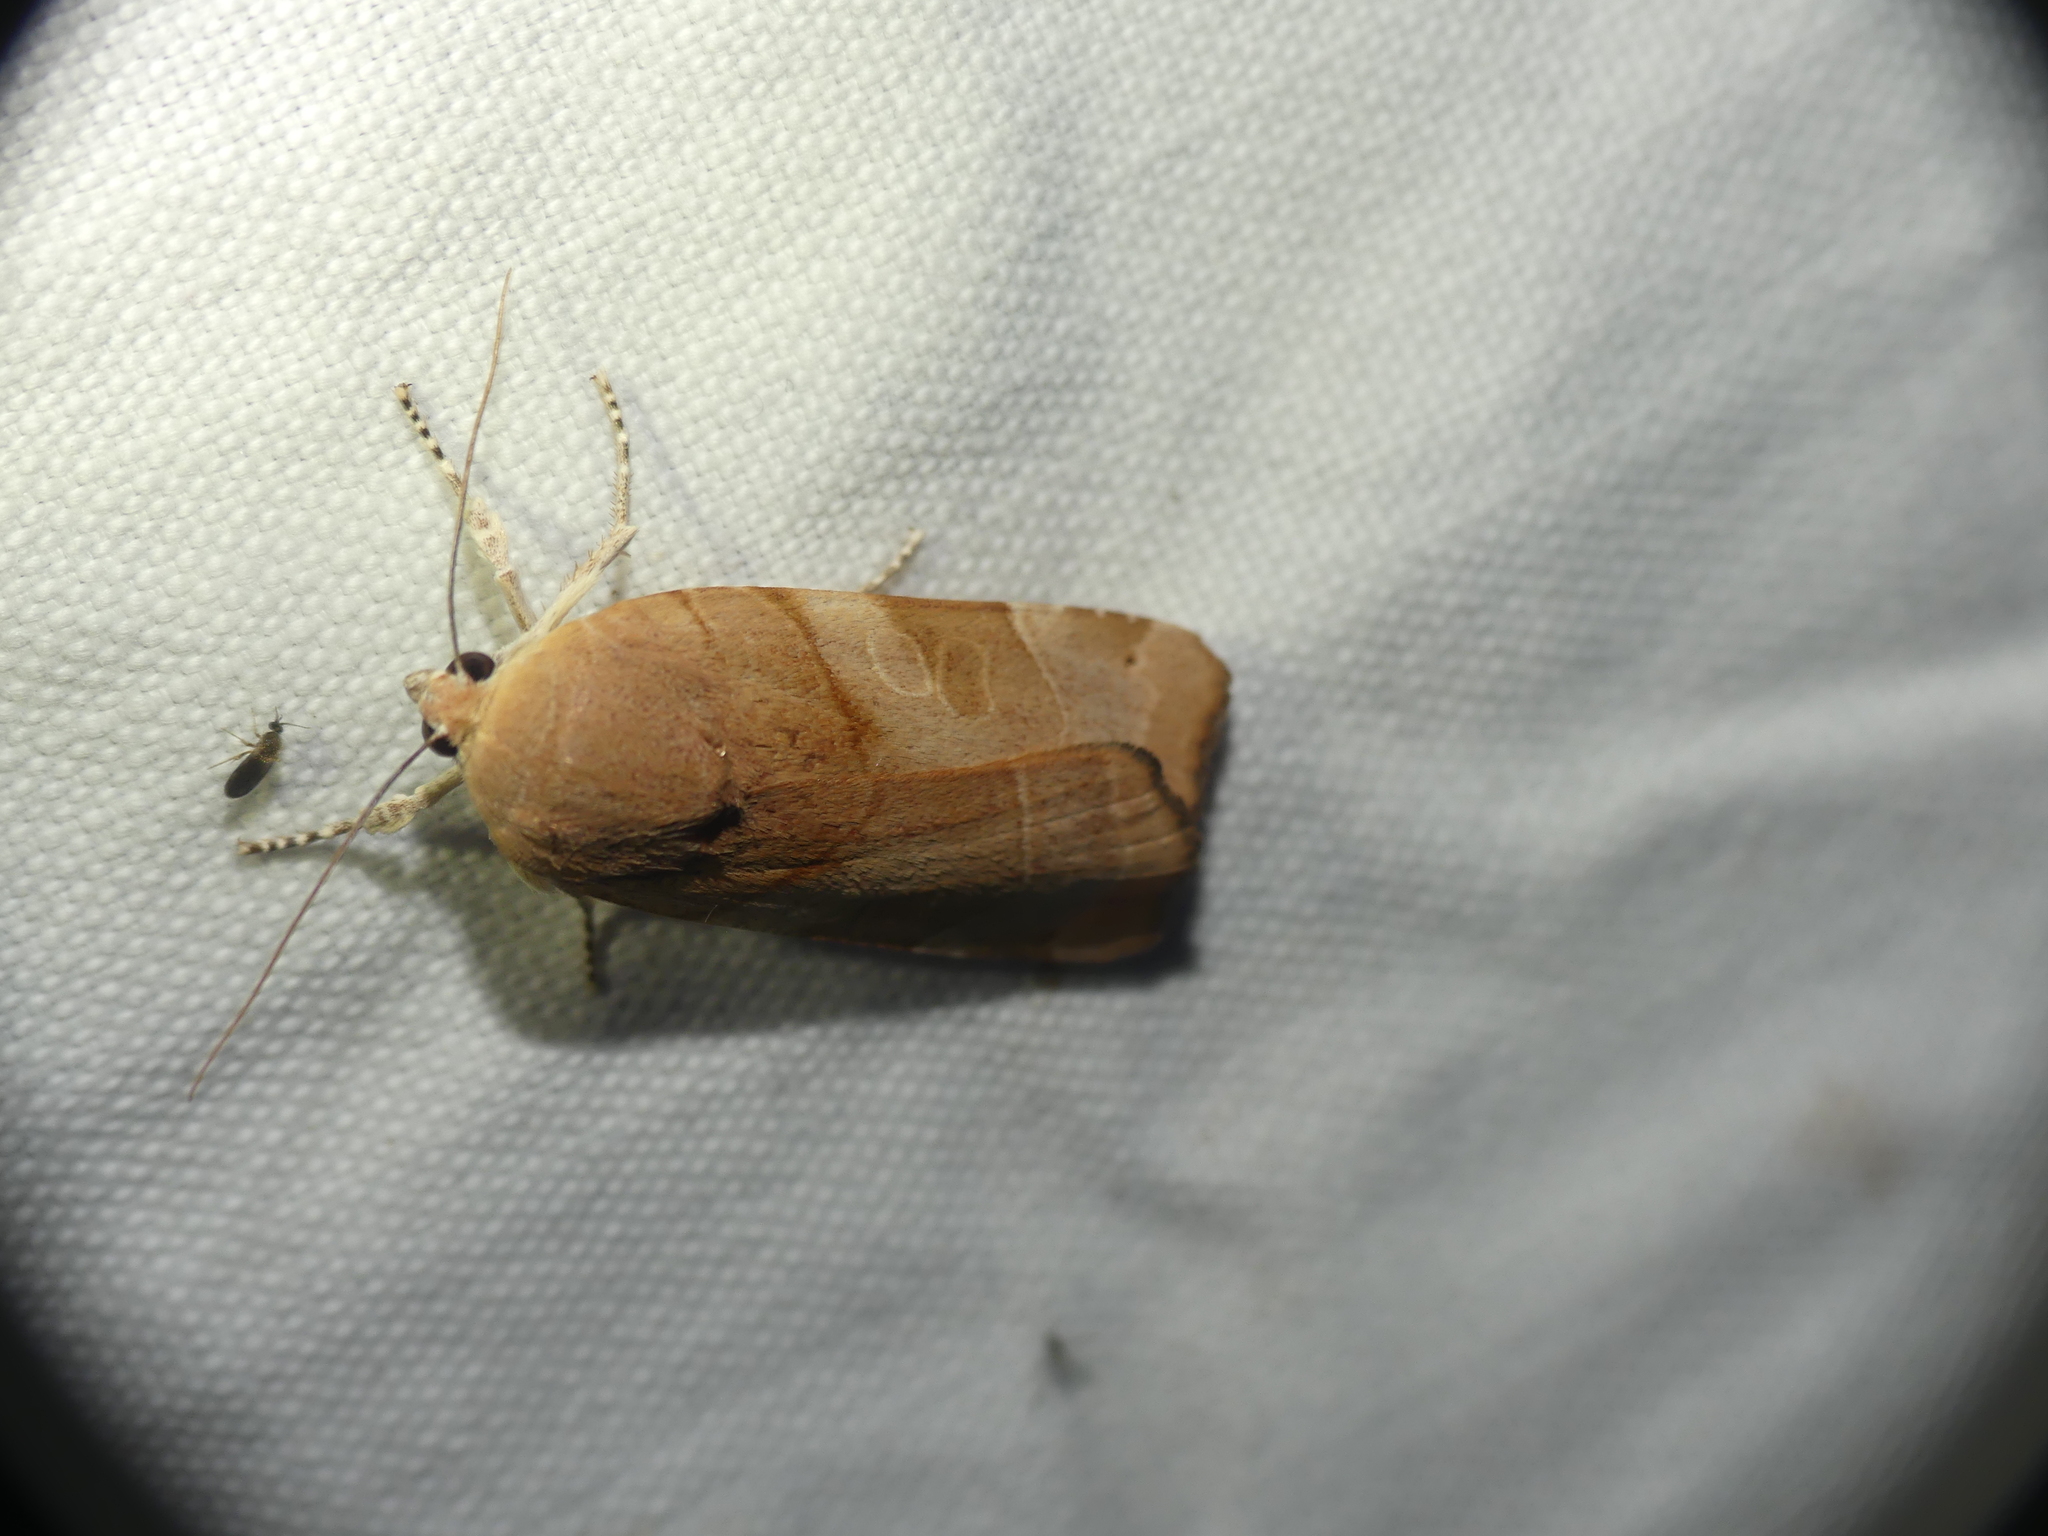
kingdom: Animalia
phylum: Arthropoda
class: Insecta
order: Lepidoptera
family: Noctuidae
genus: Noctua
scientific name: Noctua fimbriata
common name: Broad-bordered yellow underwing
